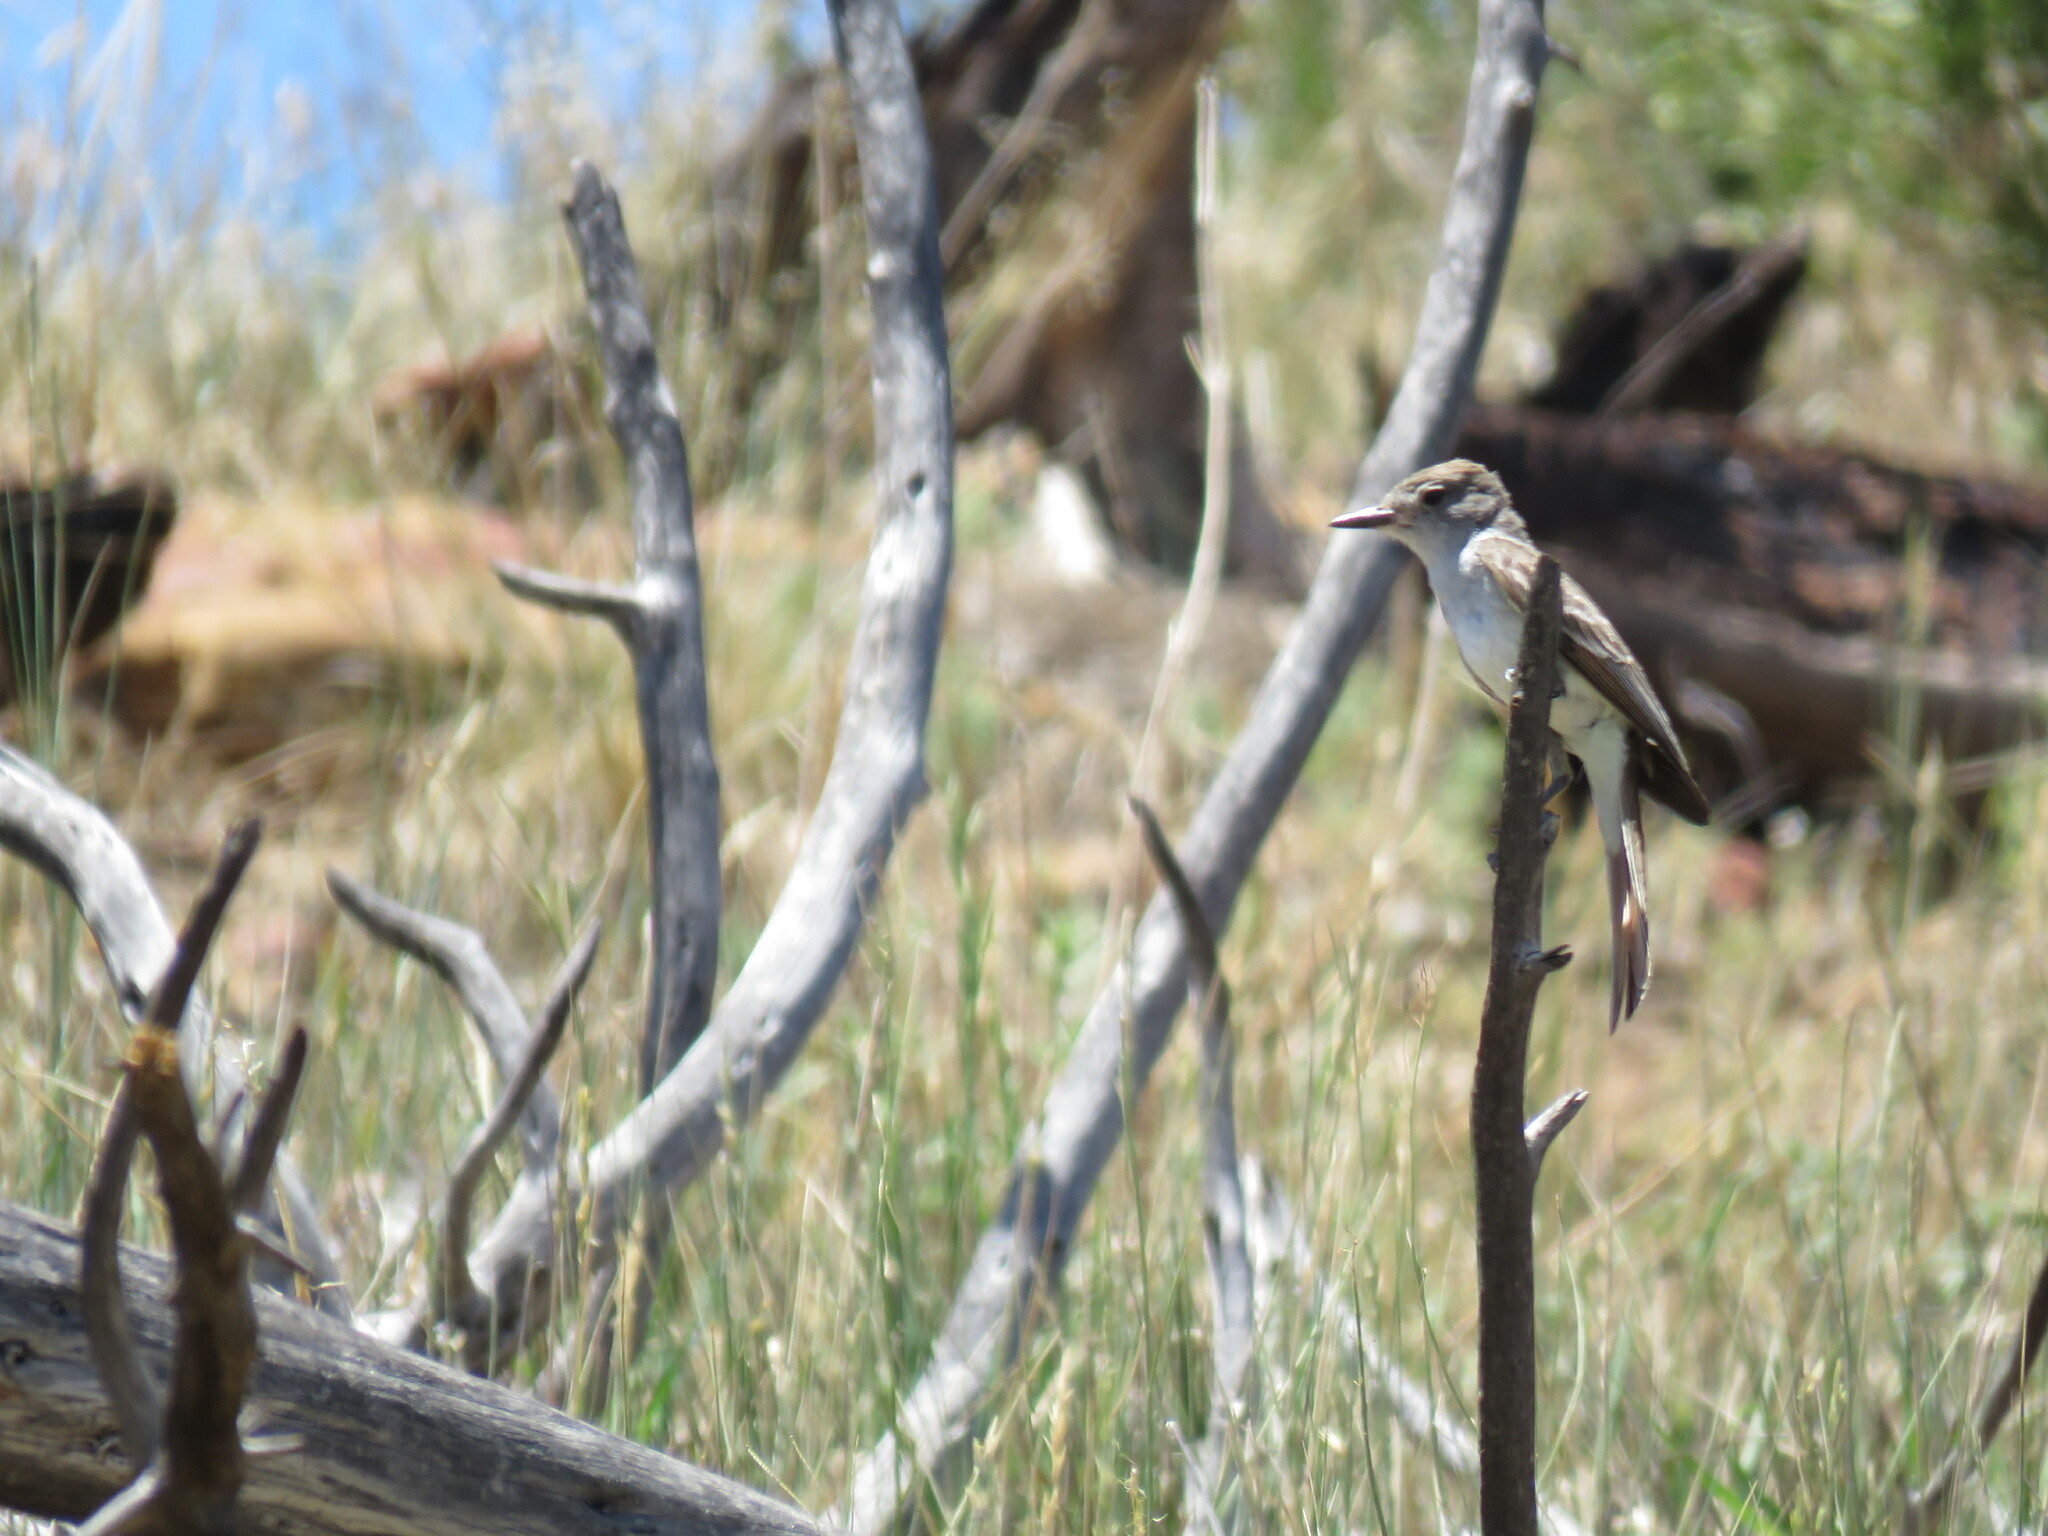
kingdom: Animalia
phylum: Chordata
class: Aves
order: Passeriformes
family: Tyrannidae
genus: Myiarchus
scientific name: Myiarchus cinerascens
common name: Ash-throated flycatcher
